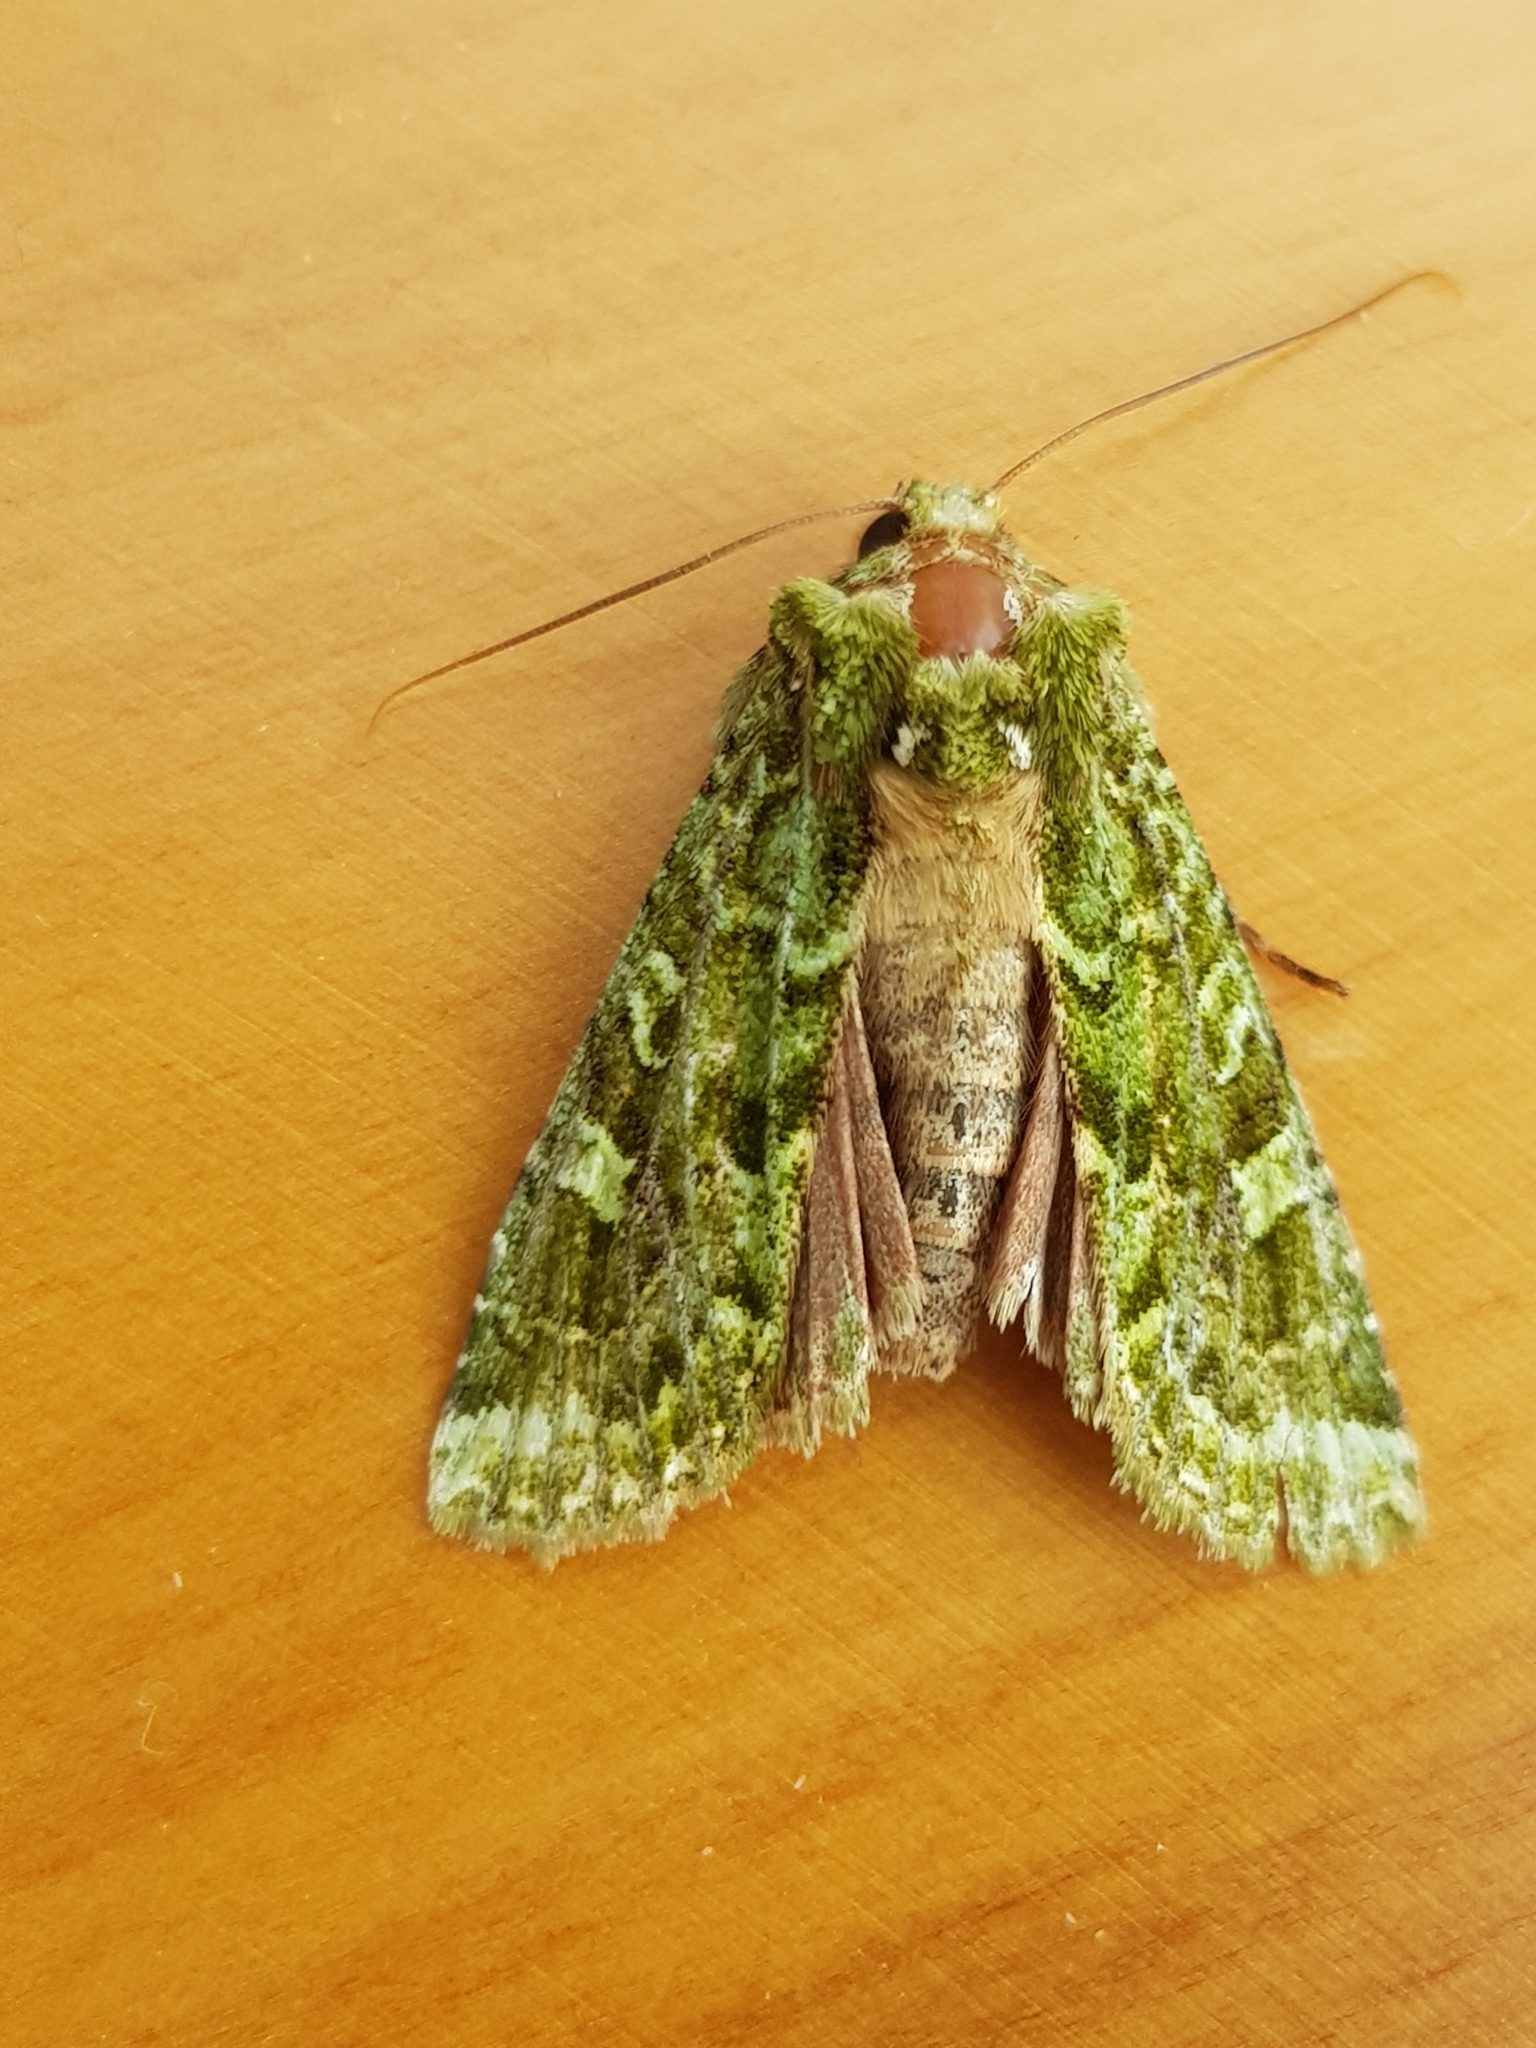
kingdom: Animalia
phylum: Arthropoda
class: Insecta
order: Lepidoptera
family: Noctuidae
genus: Feredayia
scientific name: Feredayia grammosa
